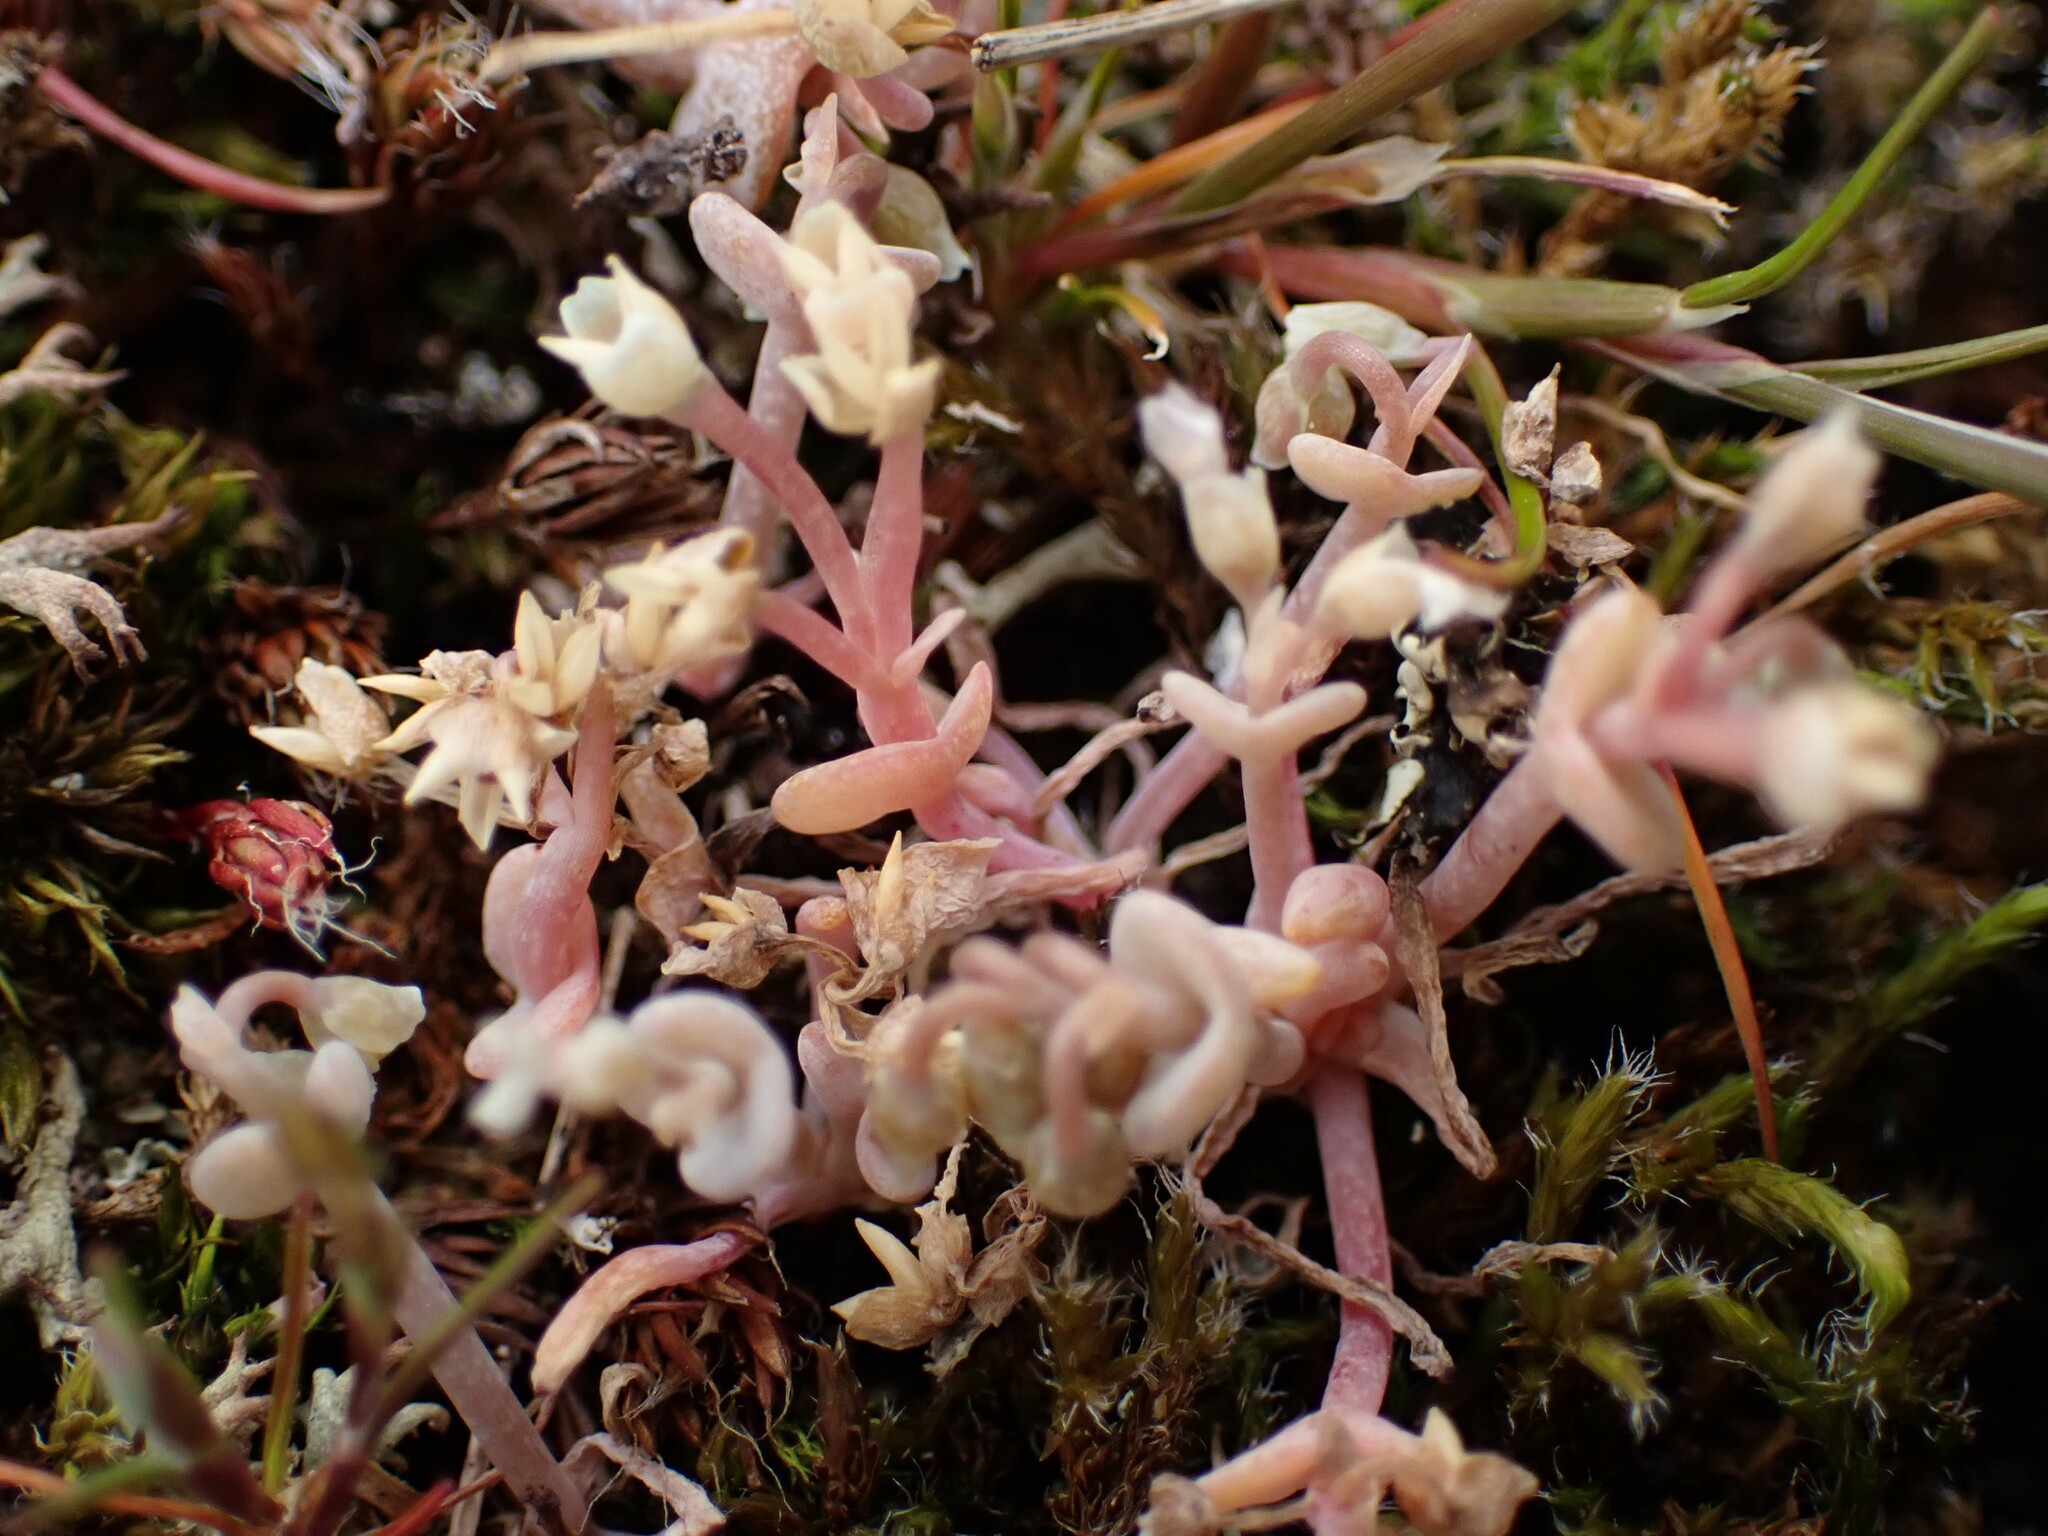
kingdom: Plantae
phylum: Tracheophyta
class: Magnoliopsida
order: Caryophyllales
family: Montiaceae
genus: Claytonia
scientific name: Claytonia exigua
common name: Pale spring beauty
